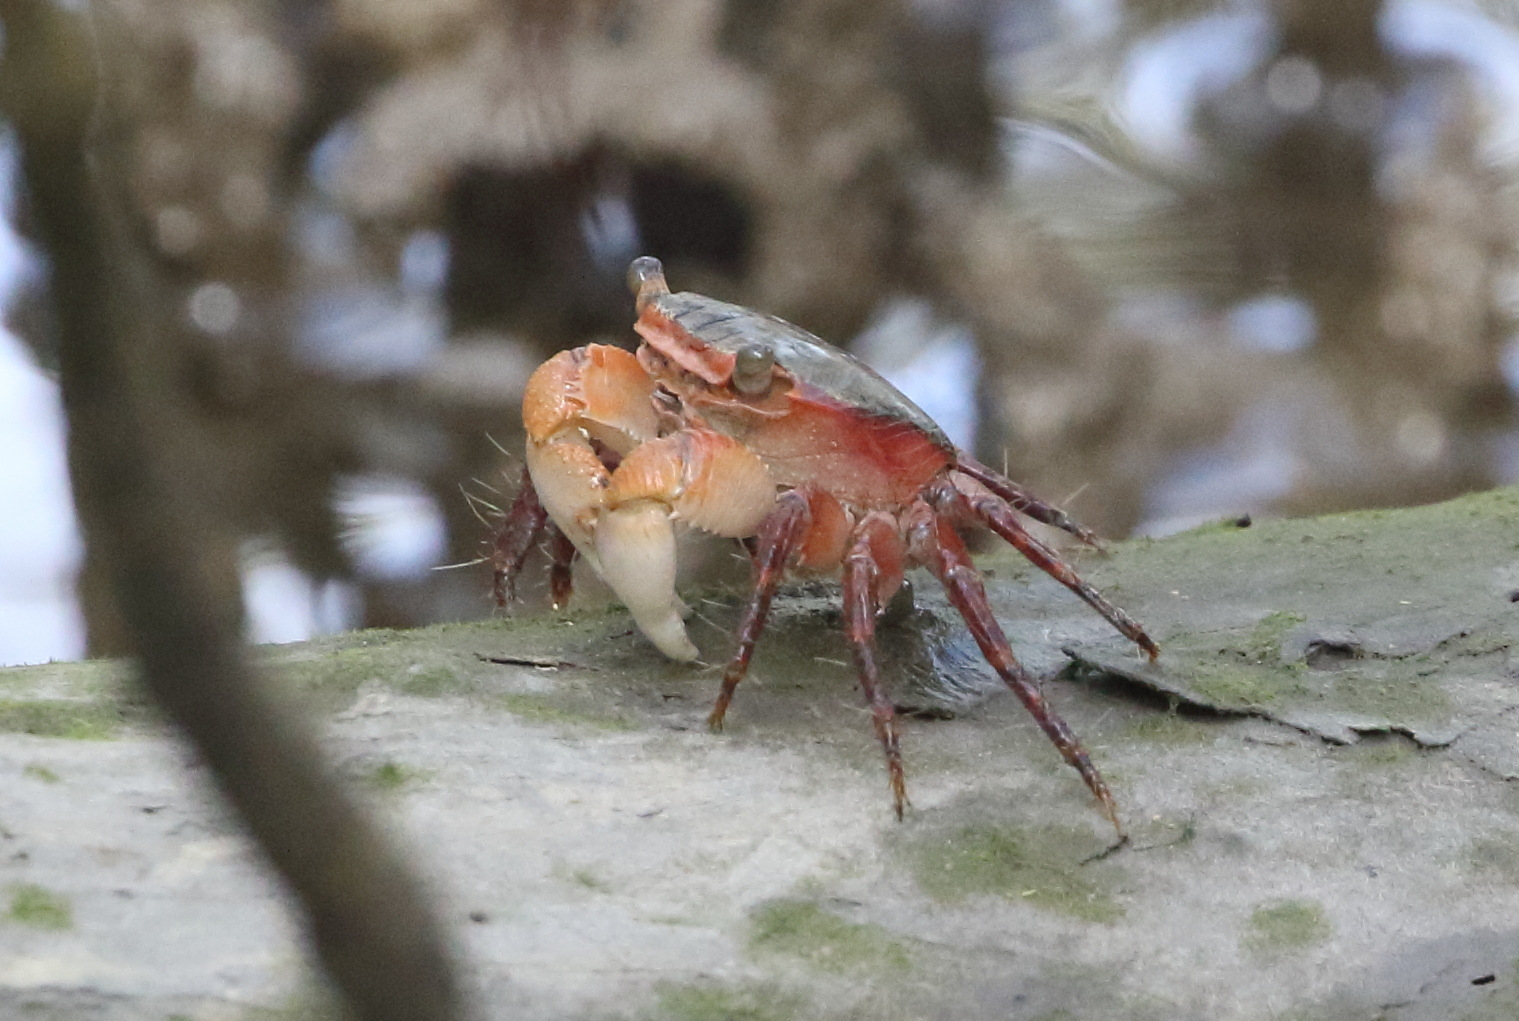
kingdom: Animalia
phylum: Arthropoda
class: Malacostraca
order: Decapoda
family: Grapsidae
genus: Metopograpsus
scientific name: Metopograpsus frontalis
